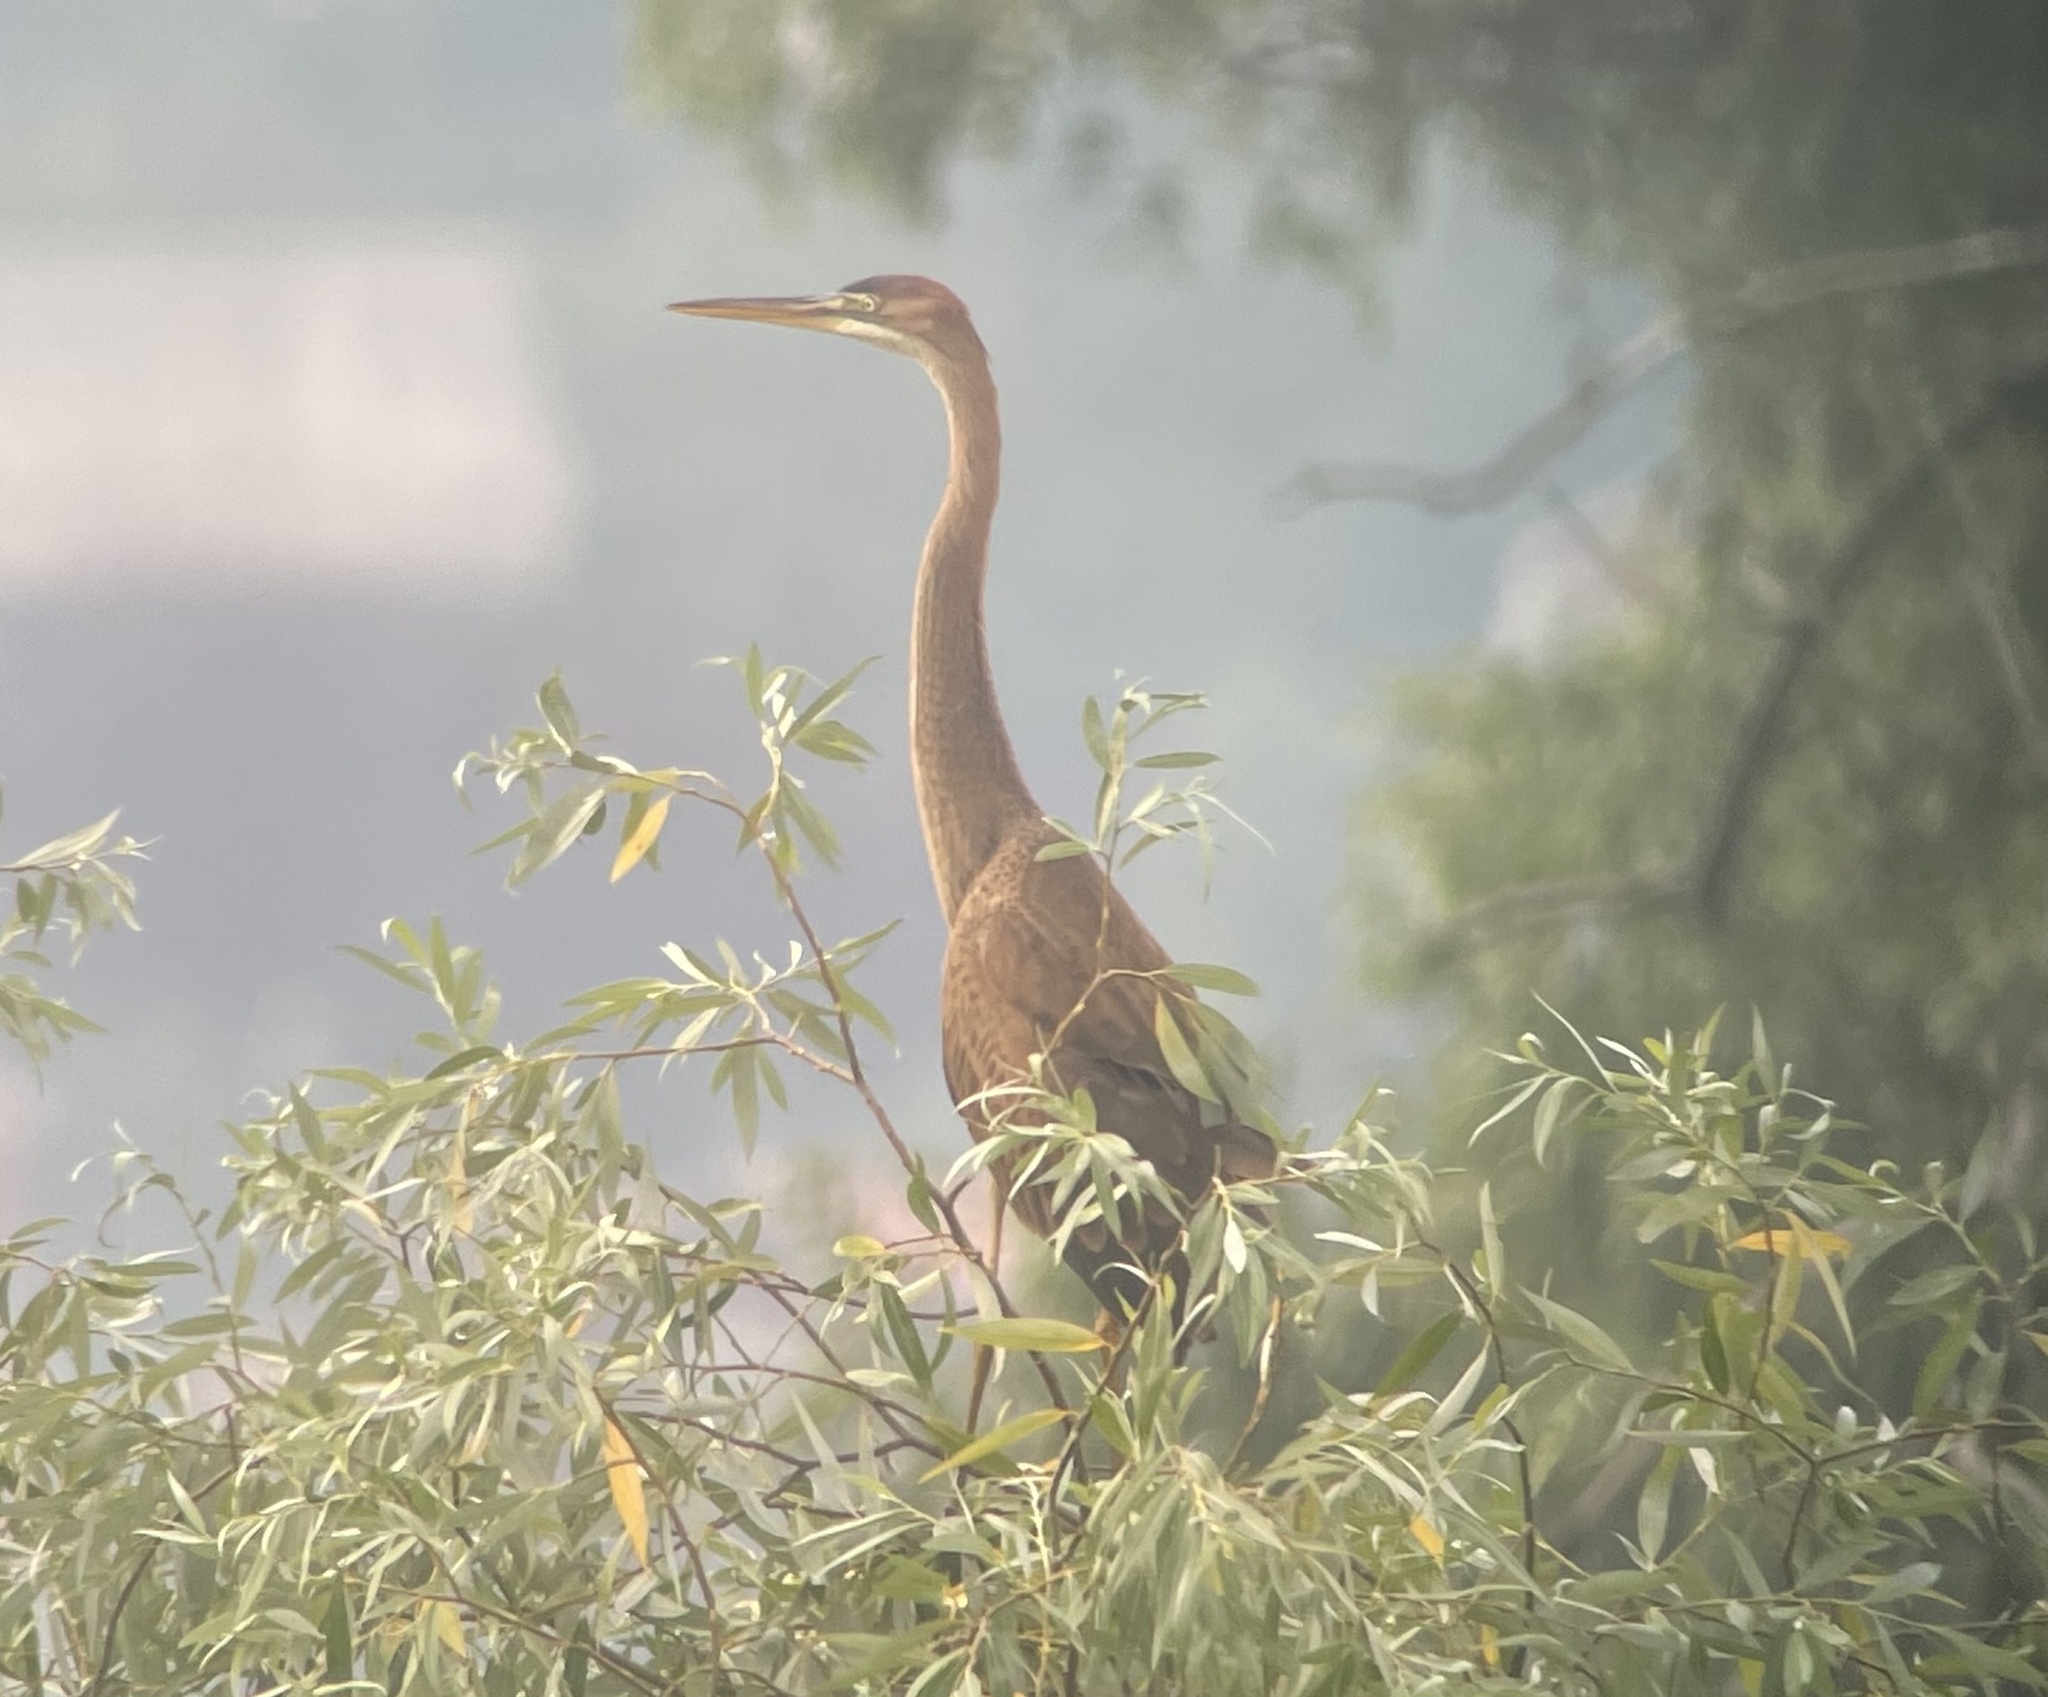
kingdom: Animalia
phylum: Chordata
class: Aves
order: Pelecaniformes
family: Ardeidae
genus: Ardea
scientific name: Ardea purpurea
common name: Purple heron
